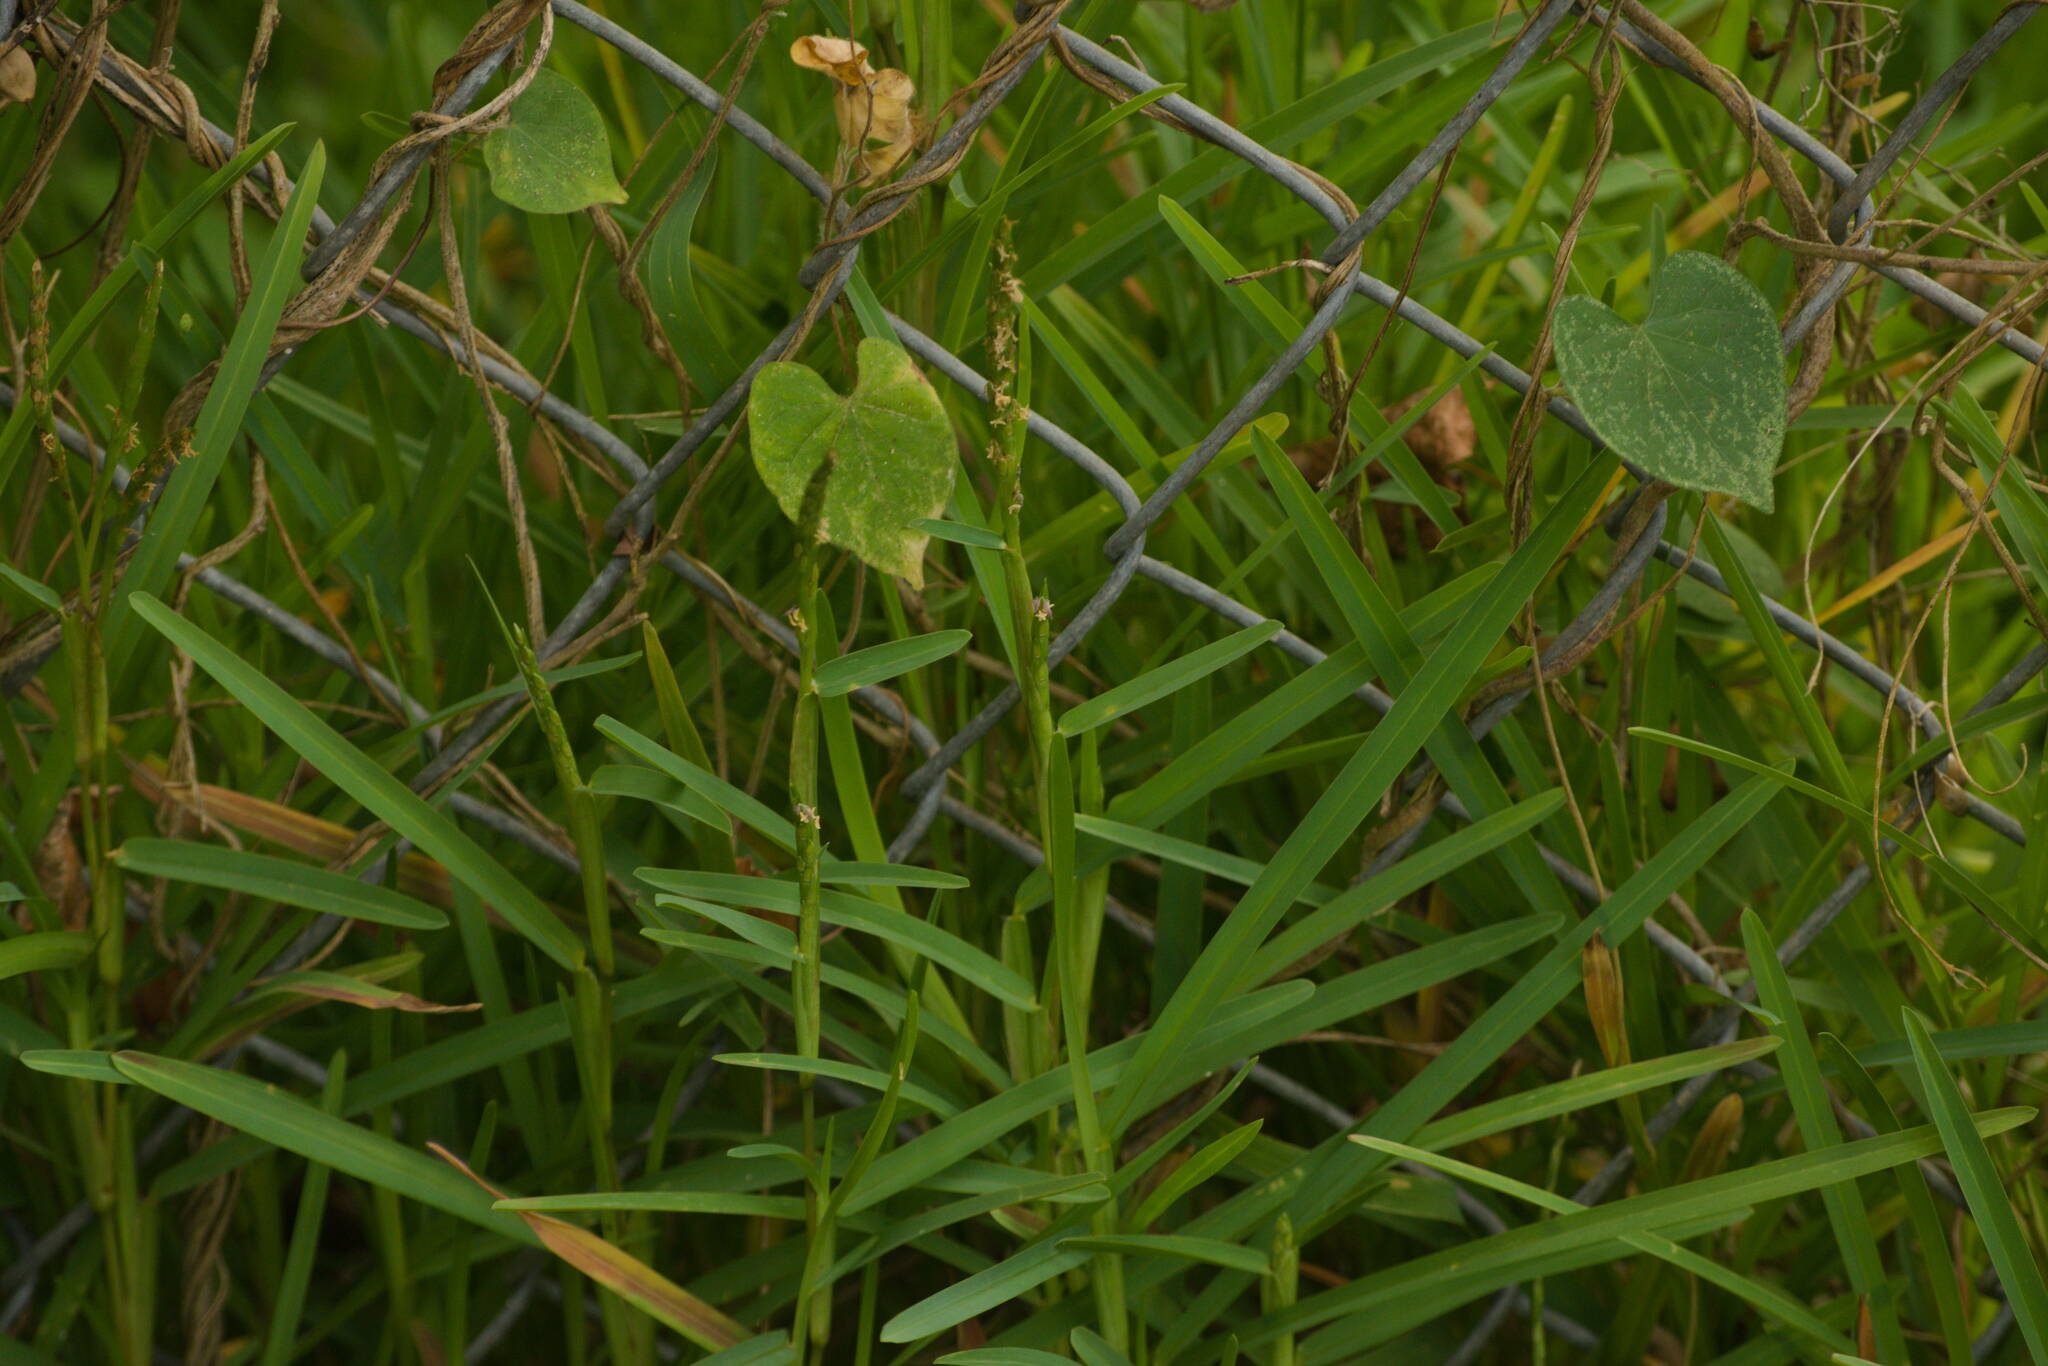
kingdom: Plantae
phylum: Tracheophyta
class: Liliopsida
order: Poales
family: Poaceae
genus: Stenotaphrum
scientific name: Stenotaphrum secundatum
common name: St. augustine grass
